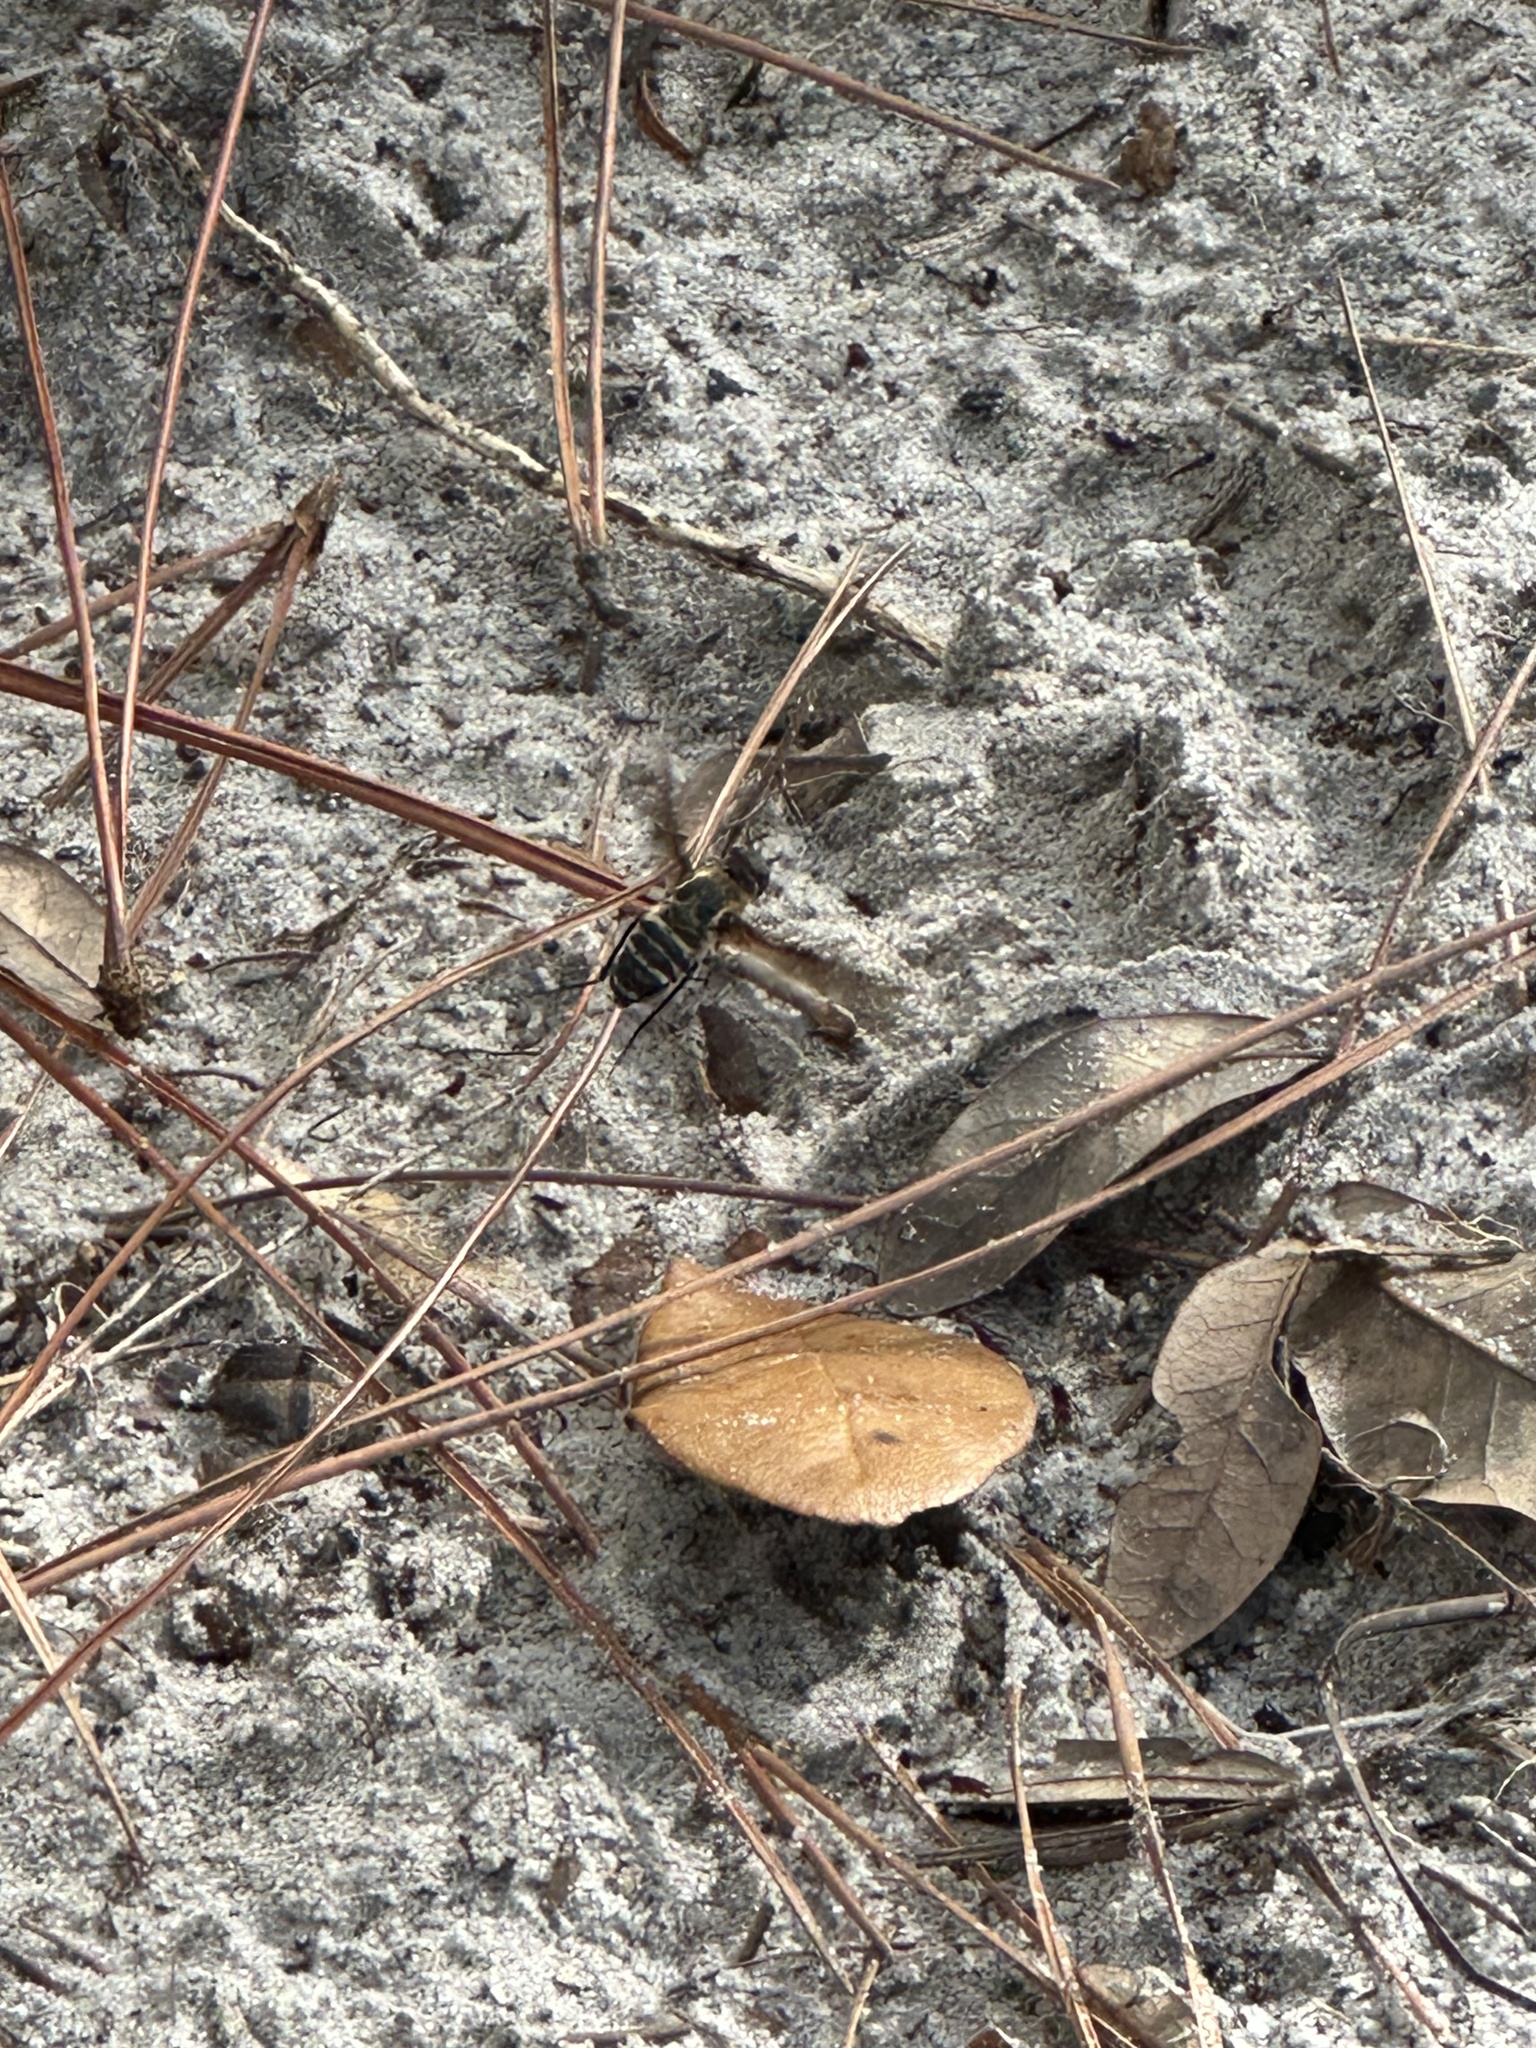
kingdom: Animalia
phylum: Arthropoda
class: Insecta
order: Diptera
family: Bombyliidae
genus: Exoprosopa
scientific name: Exoprosopa fasciata
